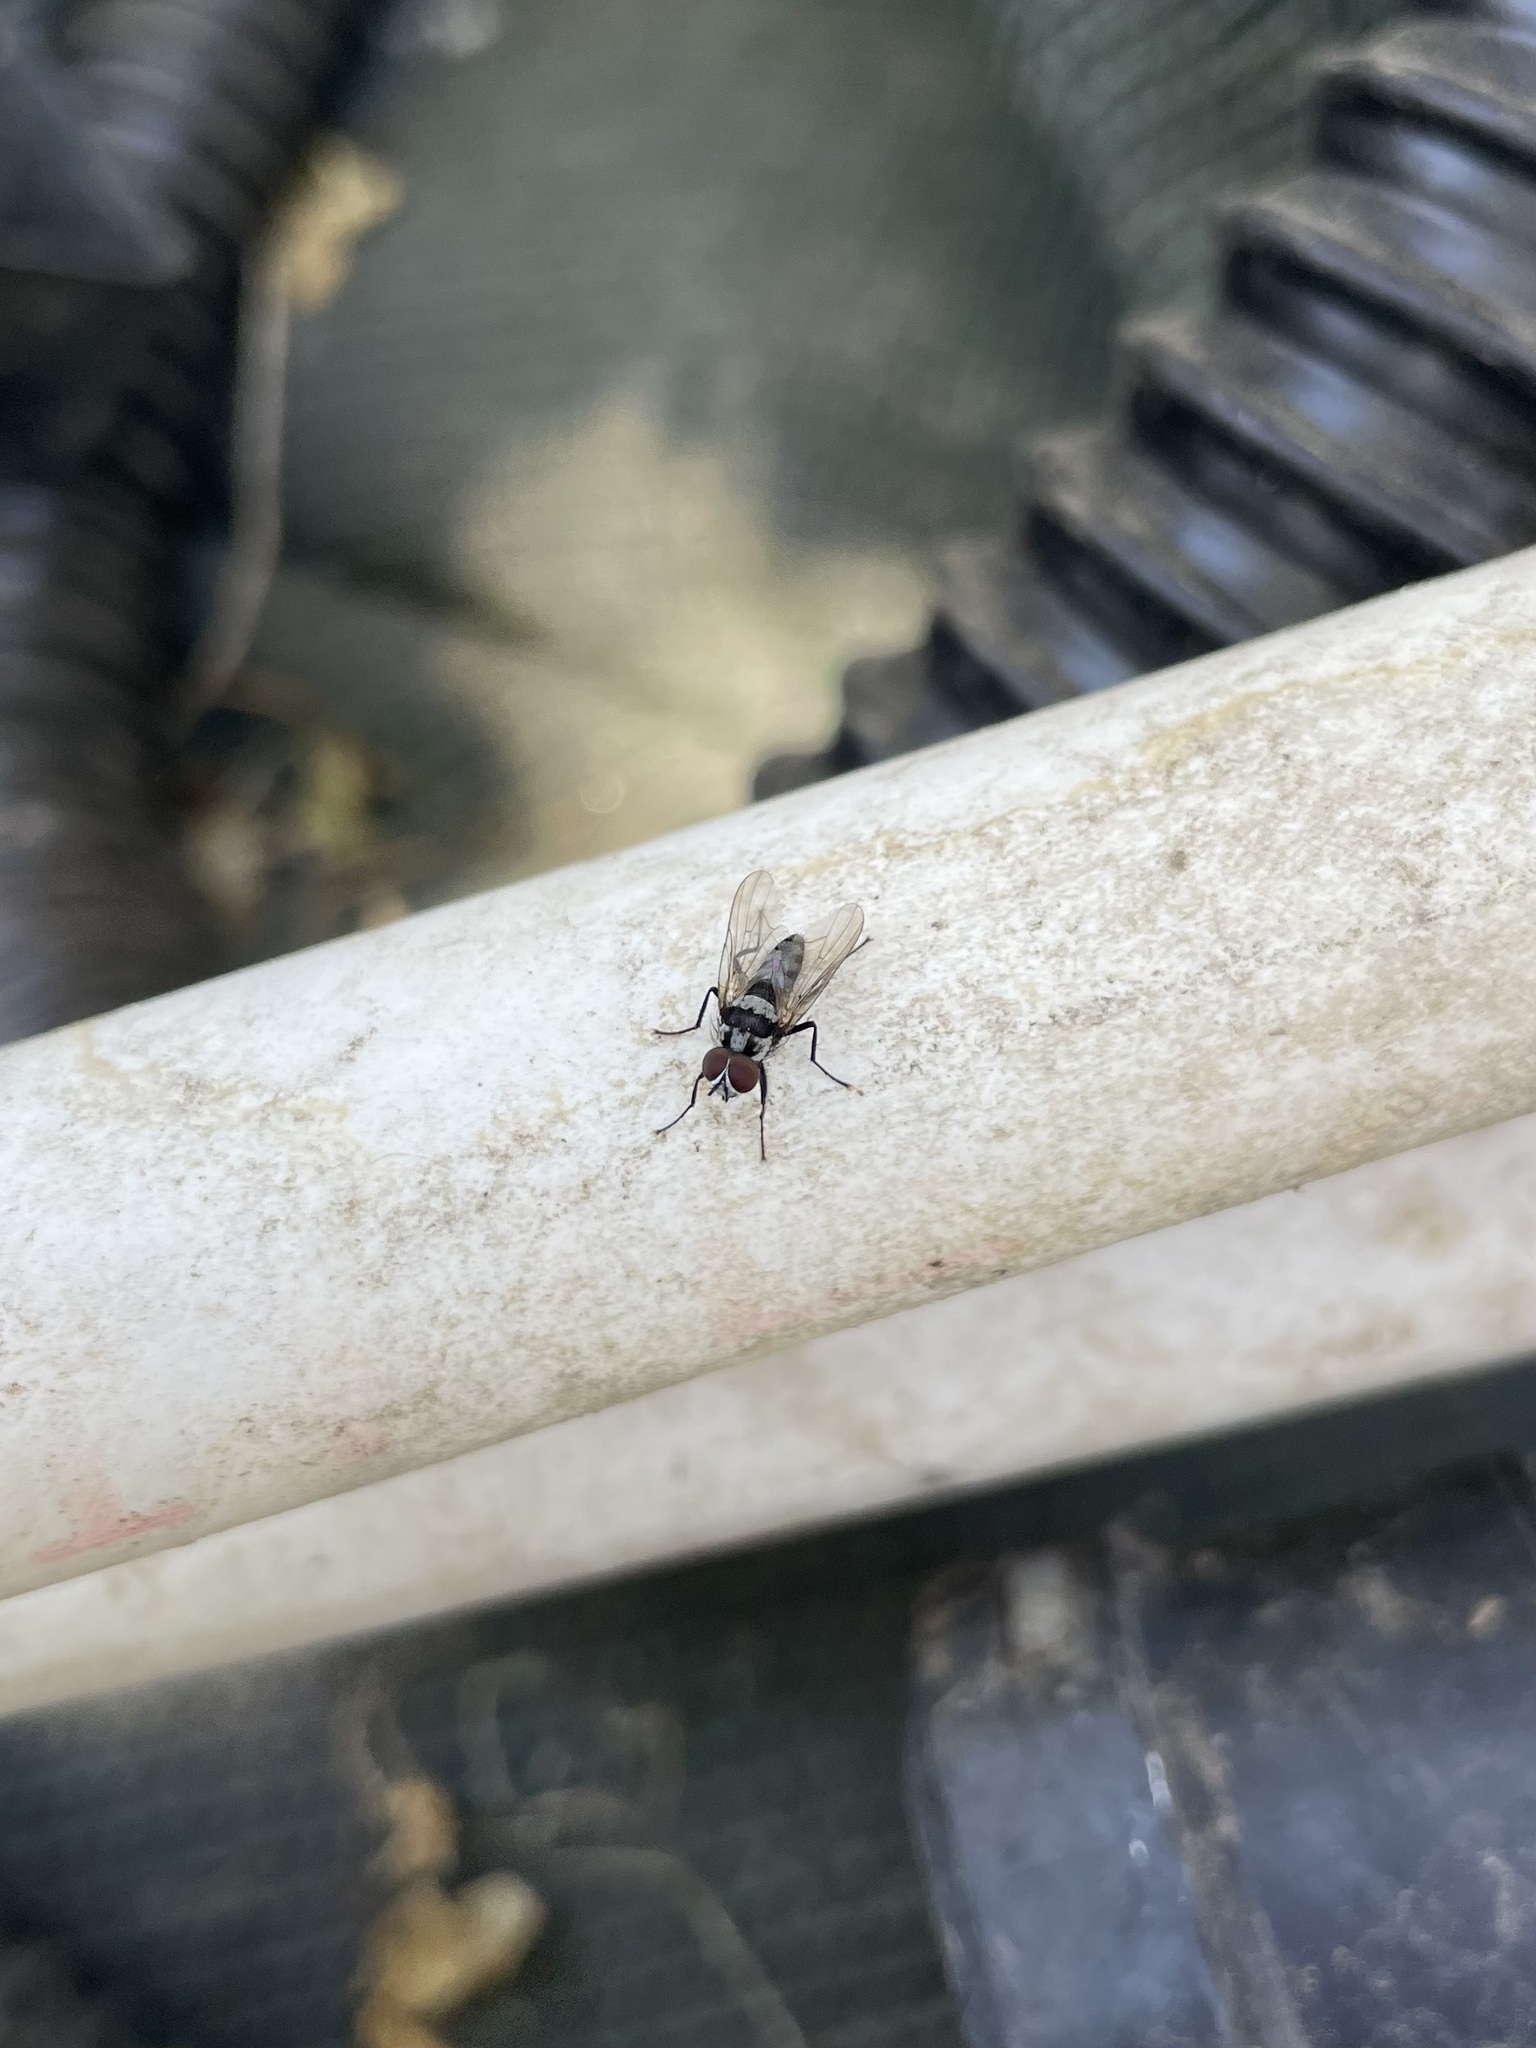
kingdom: Animalia
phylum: Arthropoda
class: Insecta
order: Diptera
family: Anthomyiidae
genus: Anthomyia
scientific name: Anthomyia oculifera
